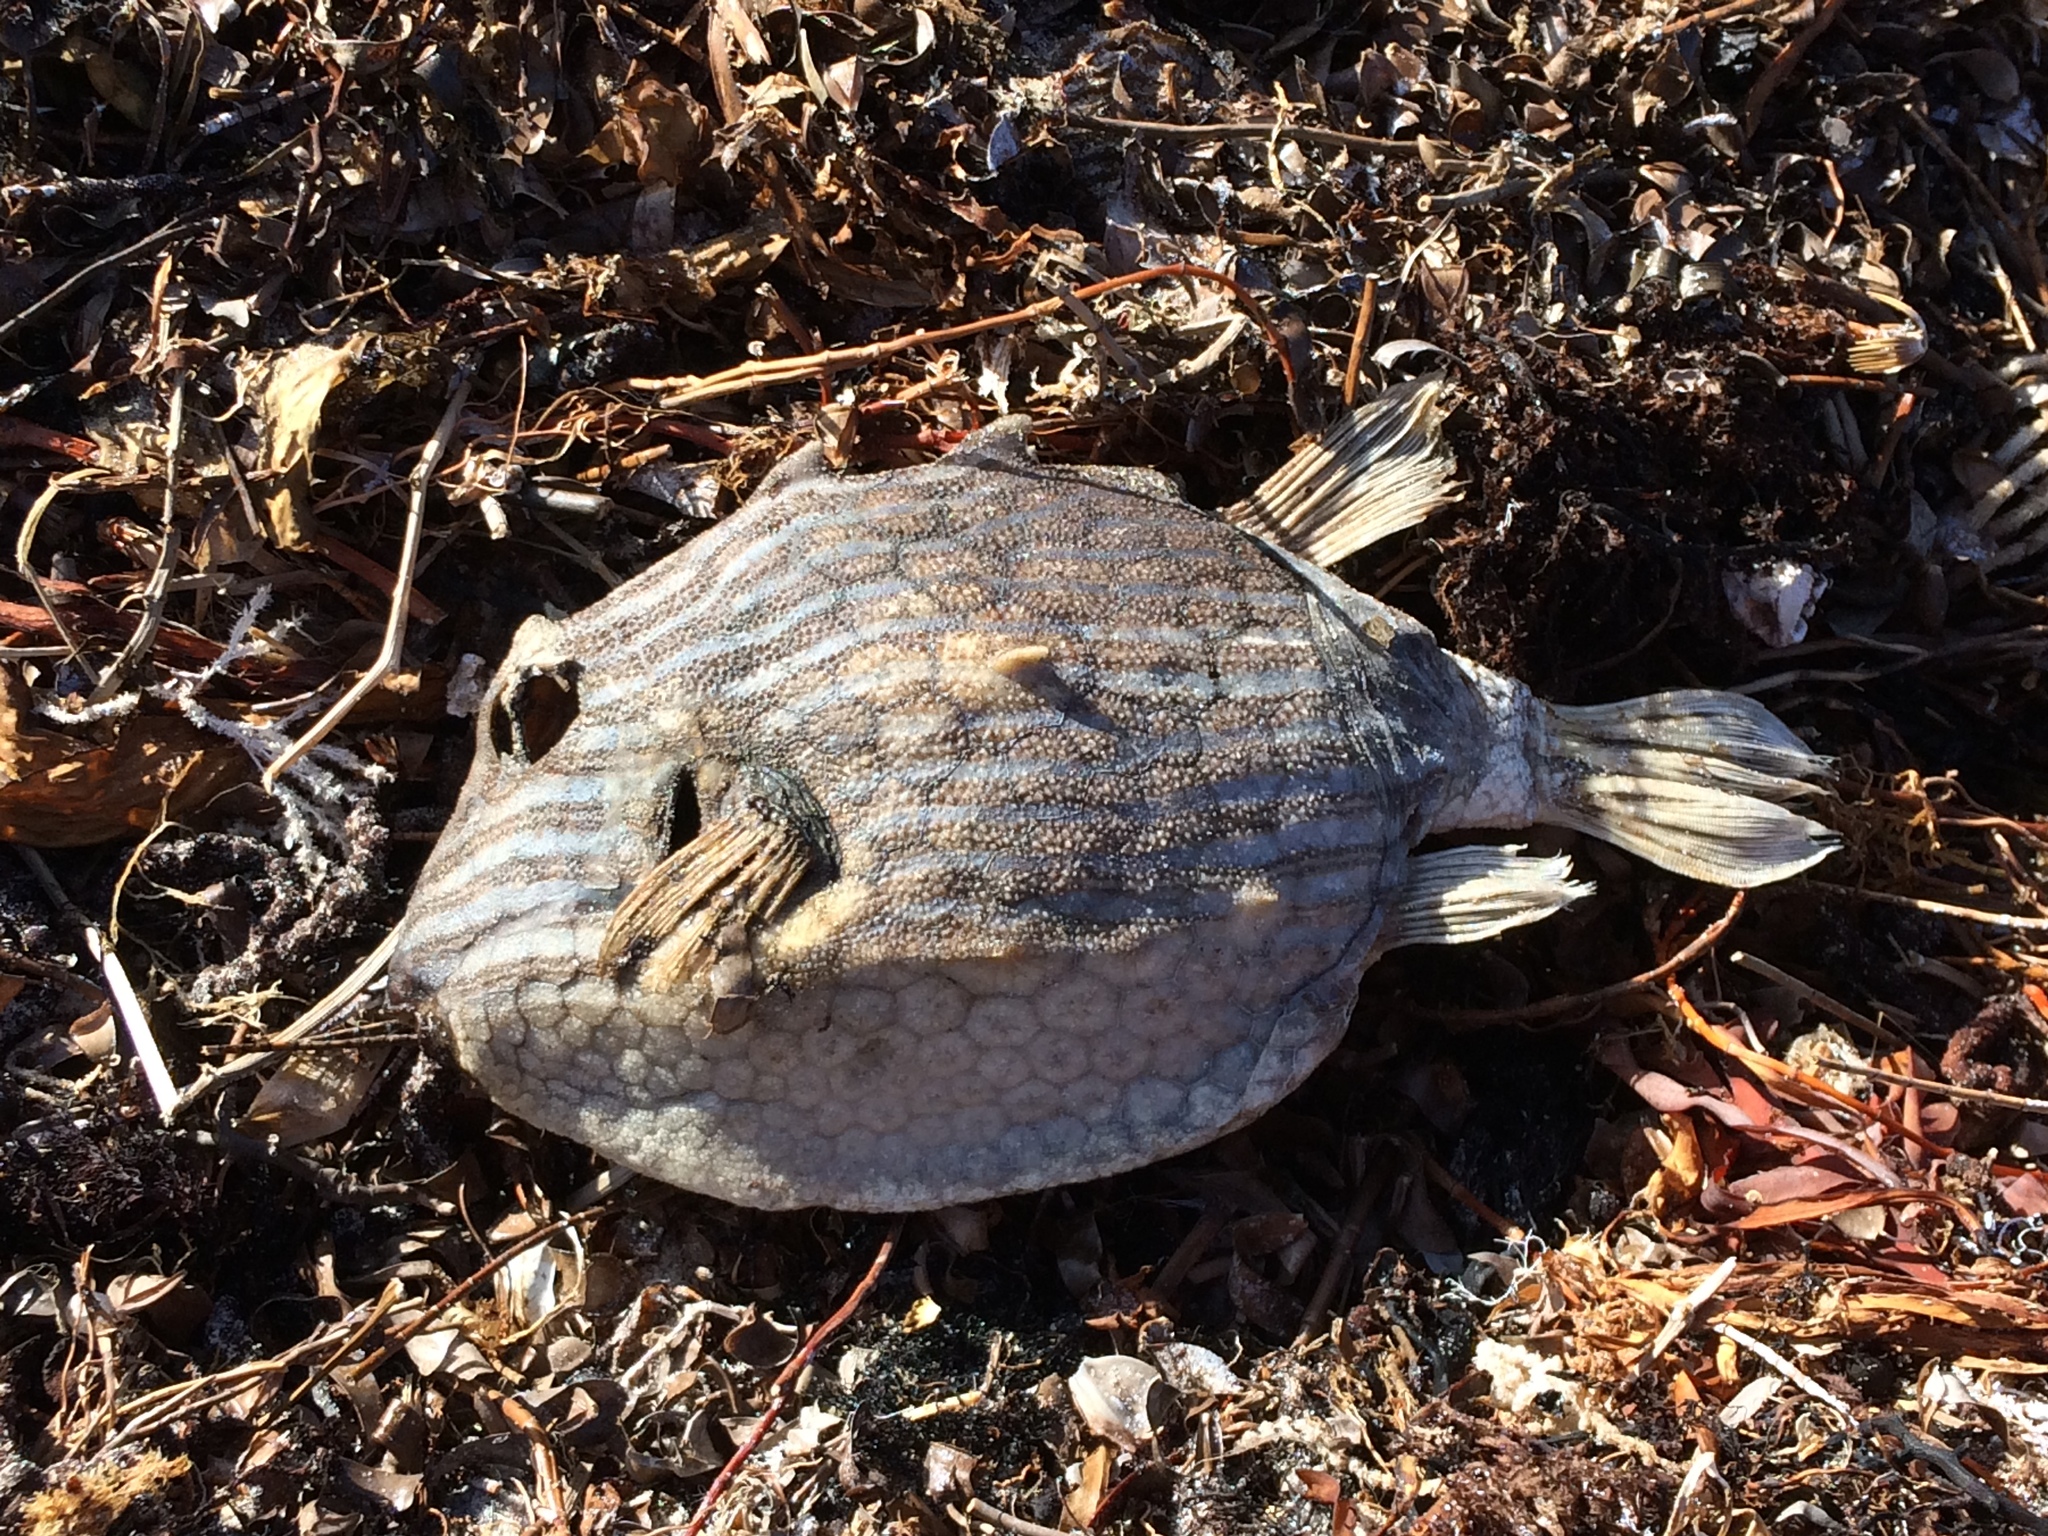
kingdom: Animalia
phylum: Chordata
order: Tetraodontiformes
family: Aracanidae
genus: Aracana
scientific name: Aracana aurita
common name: Shaw’s cowfish
